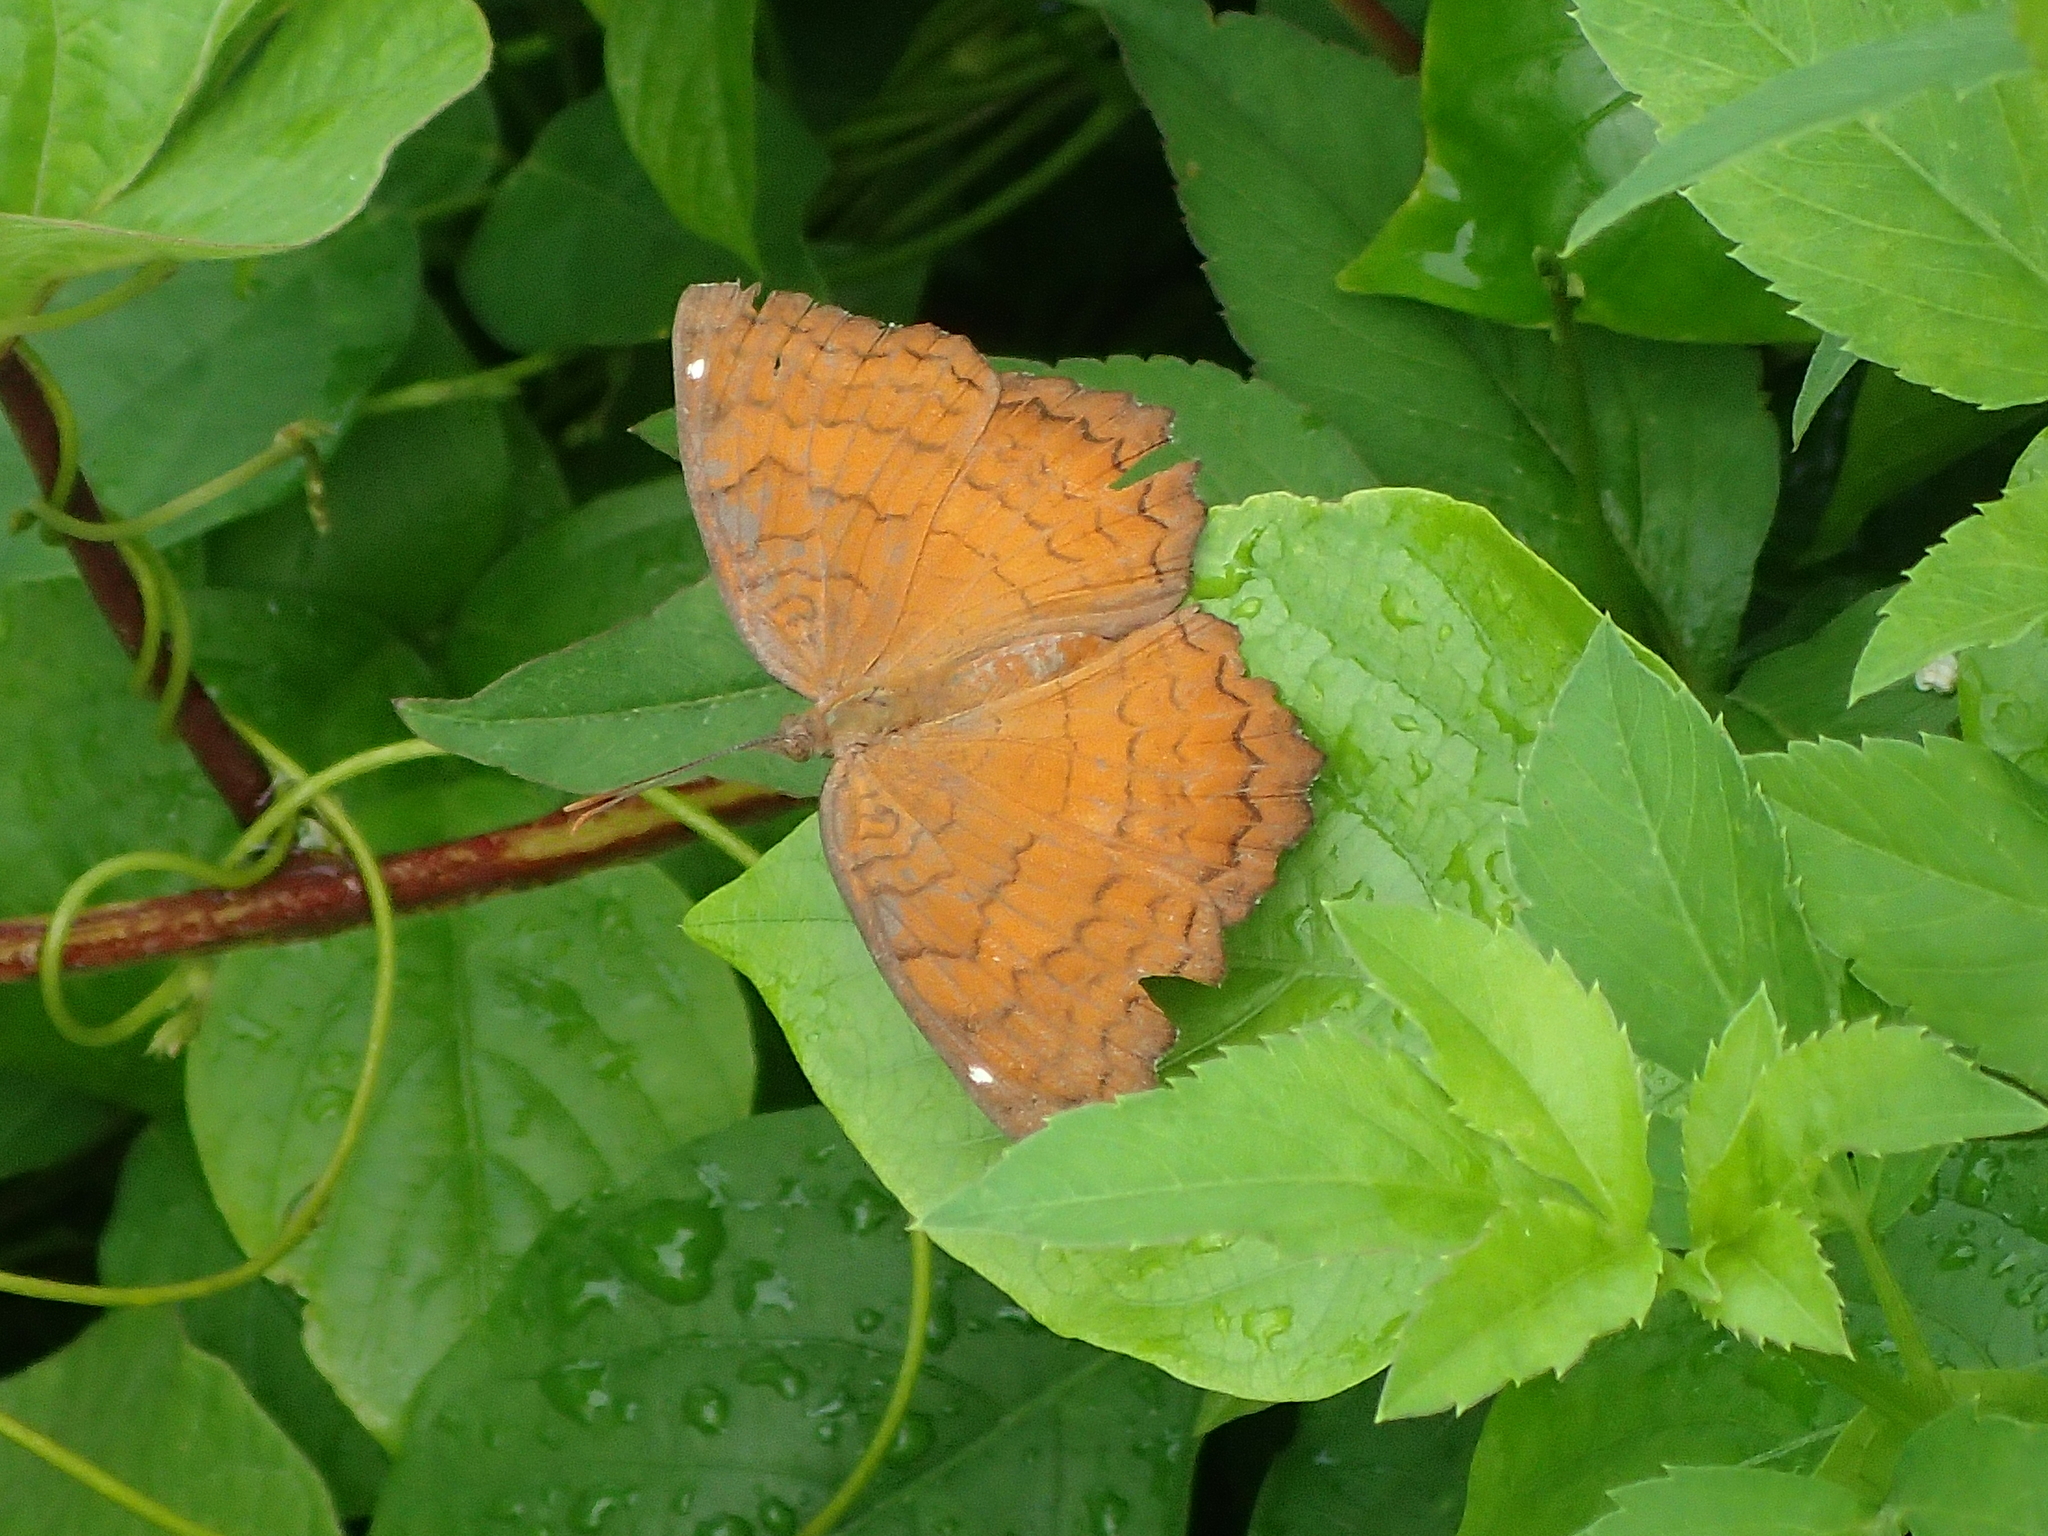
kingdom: Animalia
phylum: Arthropoda
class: Insecta
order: Lepidoptera
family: Nymphalidae
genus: Ariadne
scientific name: Ariadne ariadne
